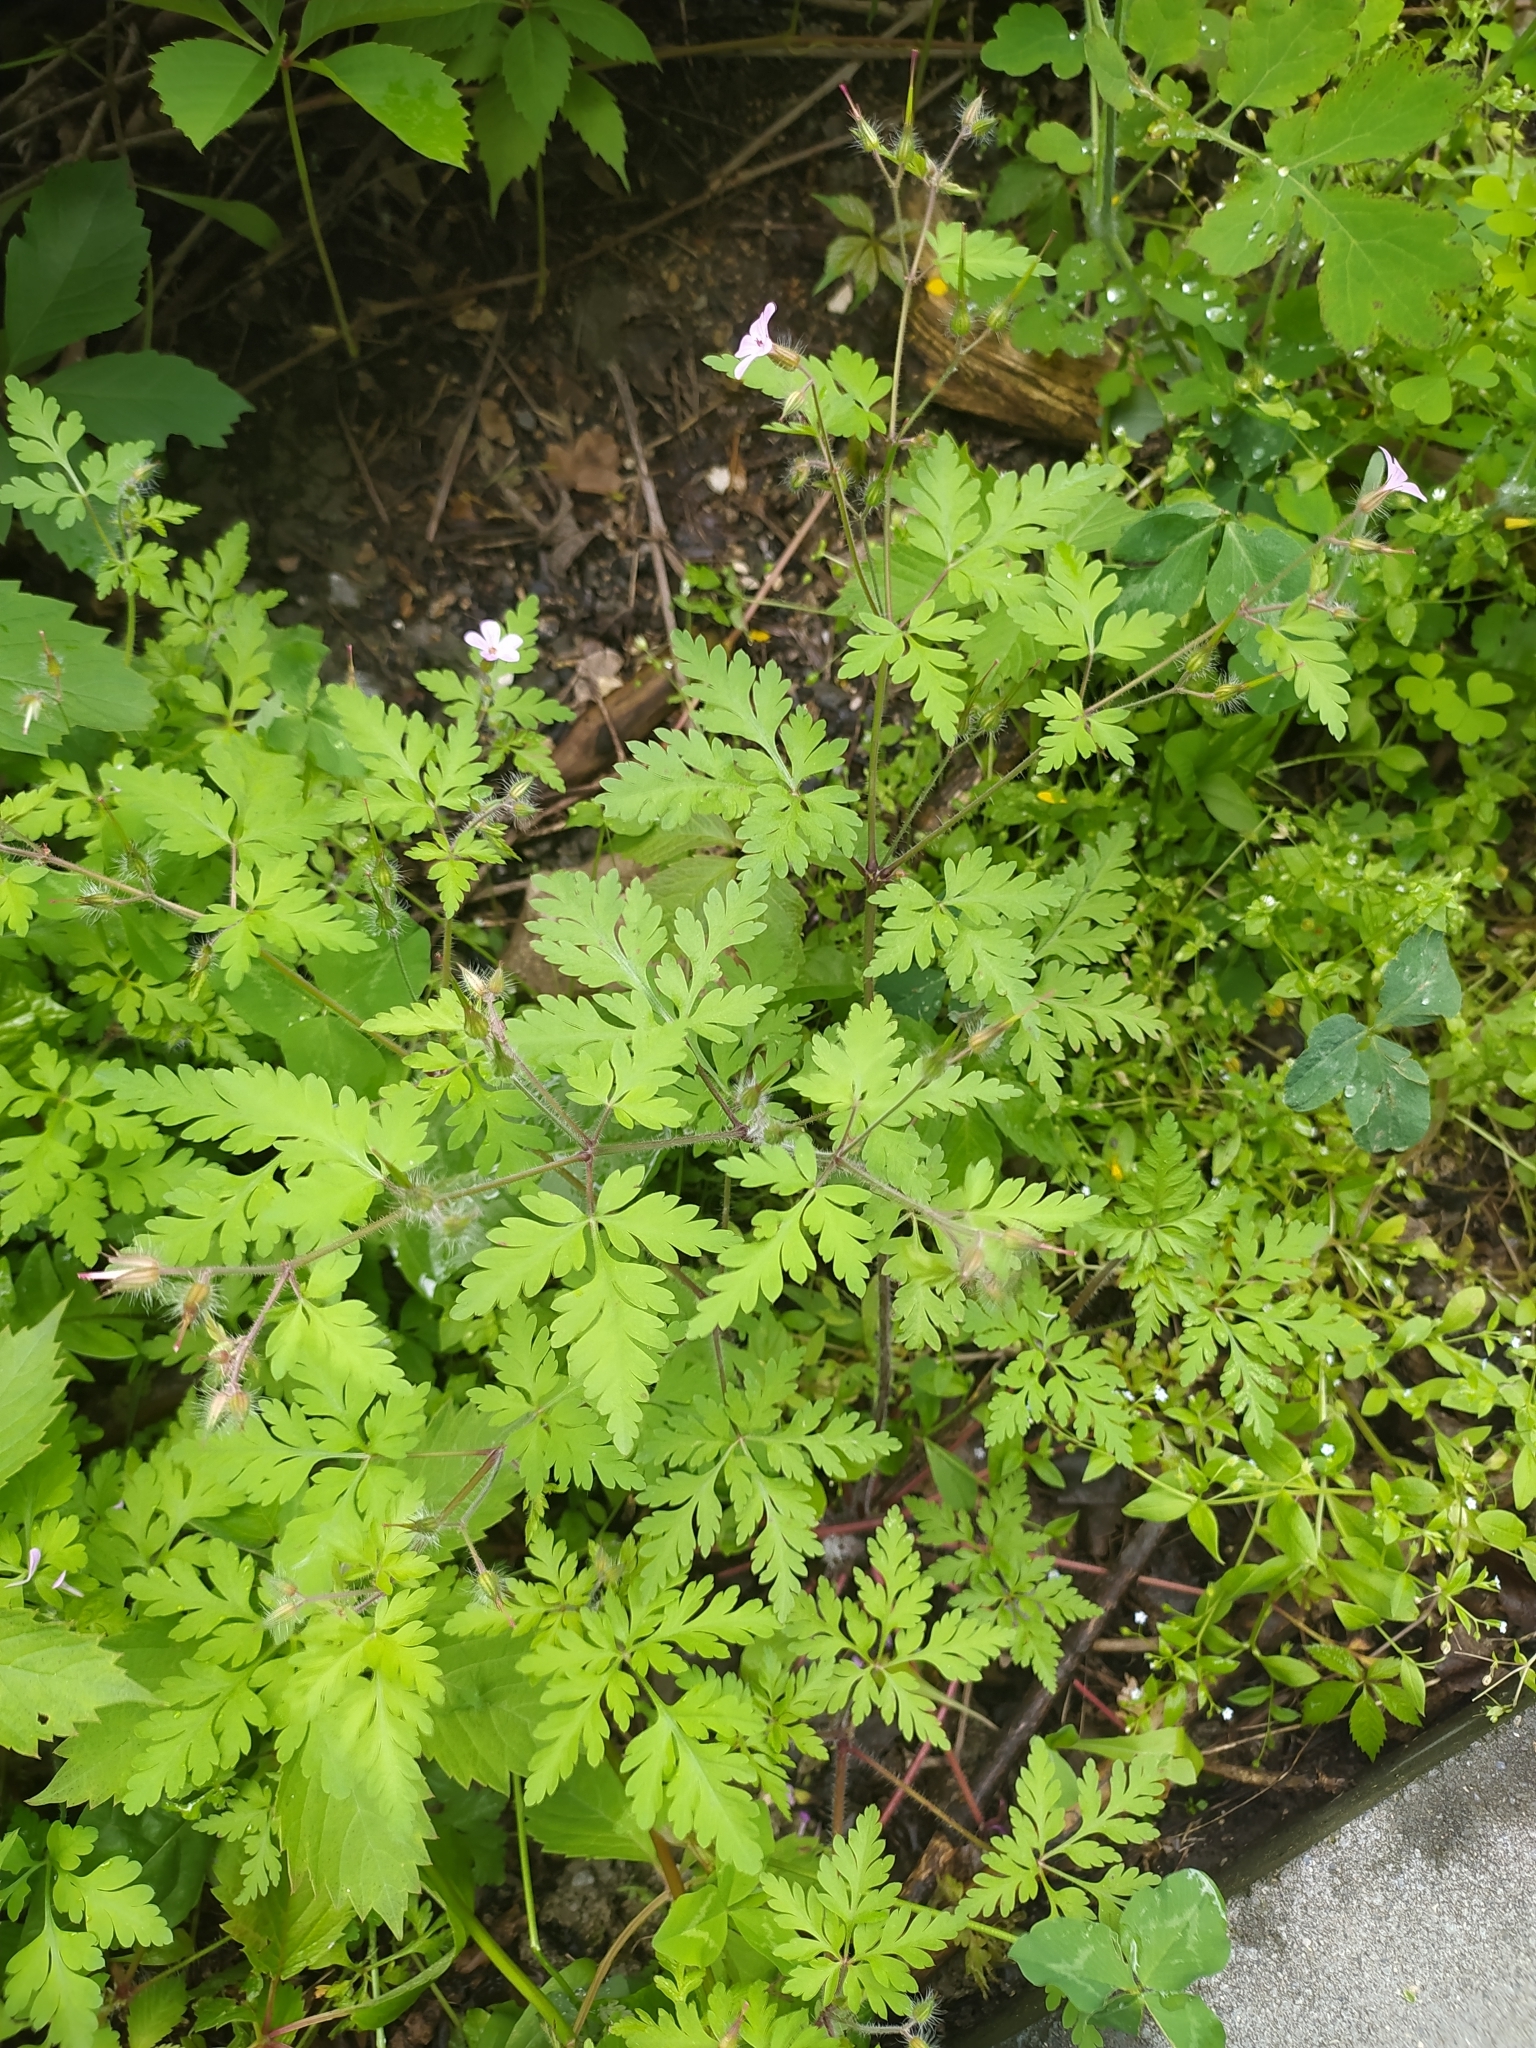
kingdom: Plantae
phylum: Tracheophyta
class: Magnoliopsida
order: Geraniales
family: Geraniaceae
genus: Geranium
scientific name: Geranium robertianum
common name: Herb-robert
